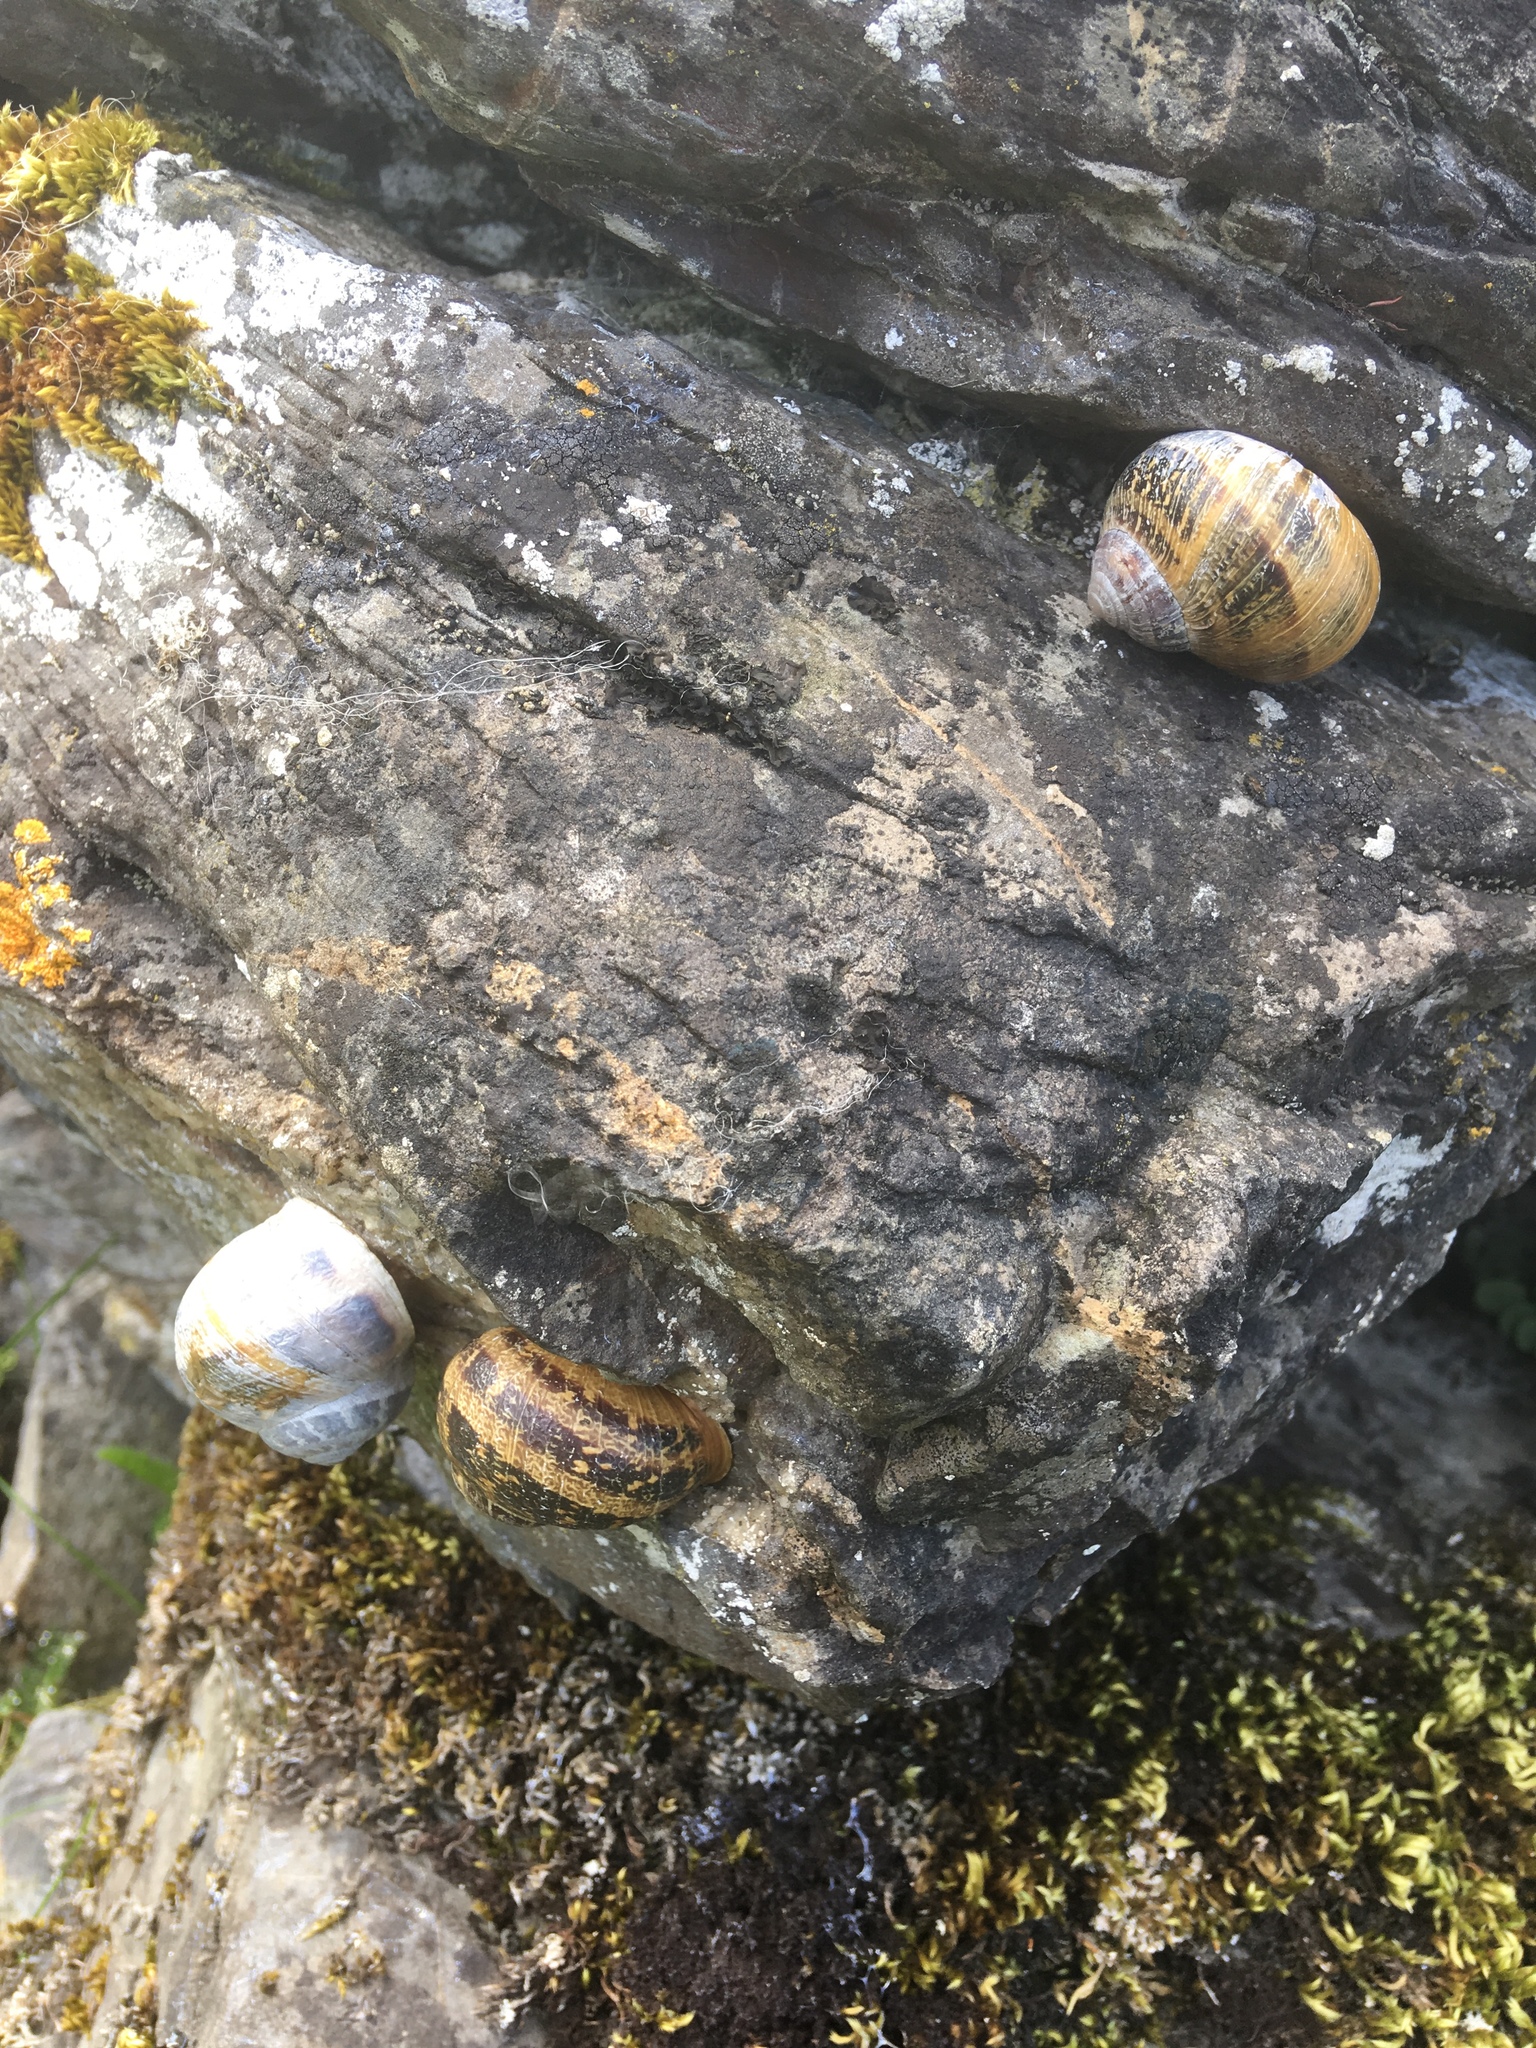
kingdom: Animalia
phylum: Mollusca
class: Gastropoda
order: Stylommatophora
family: Helicidae
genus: Cornu
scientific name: Cornu aspersum
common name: Brown garden snail
